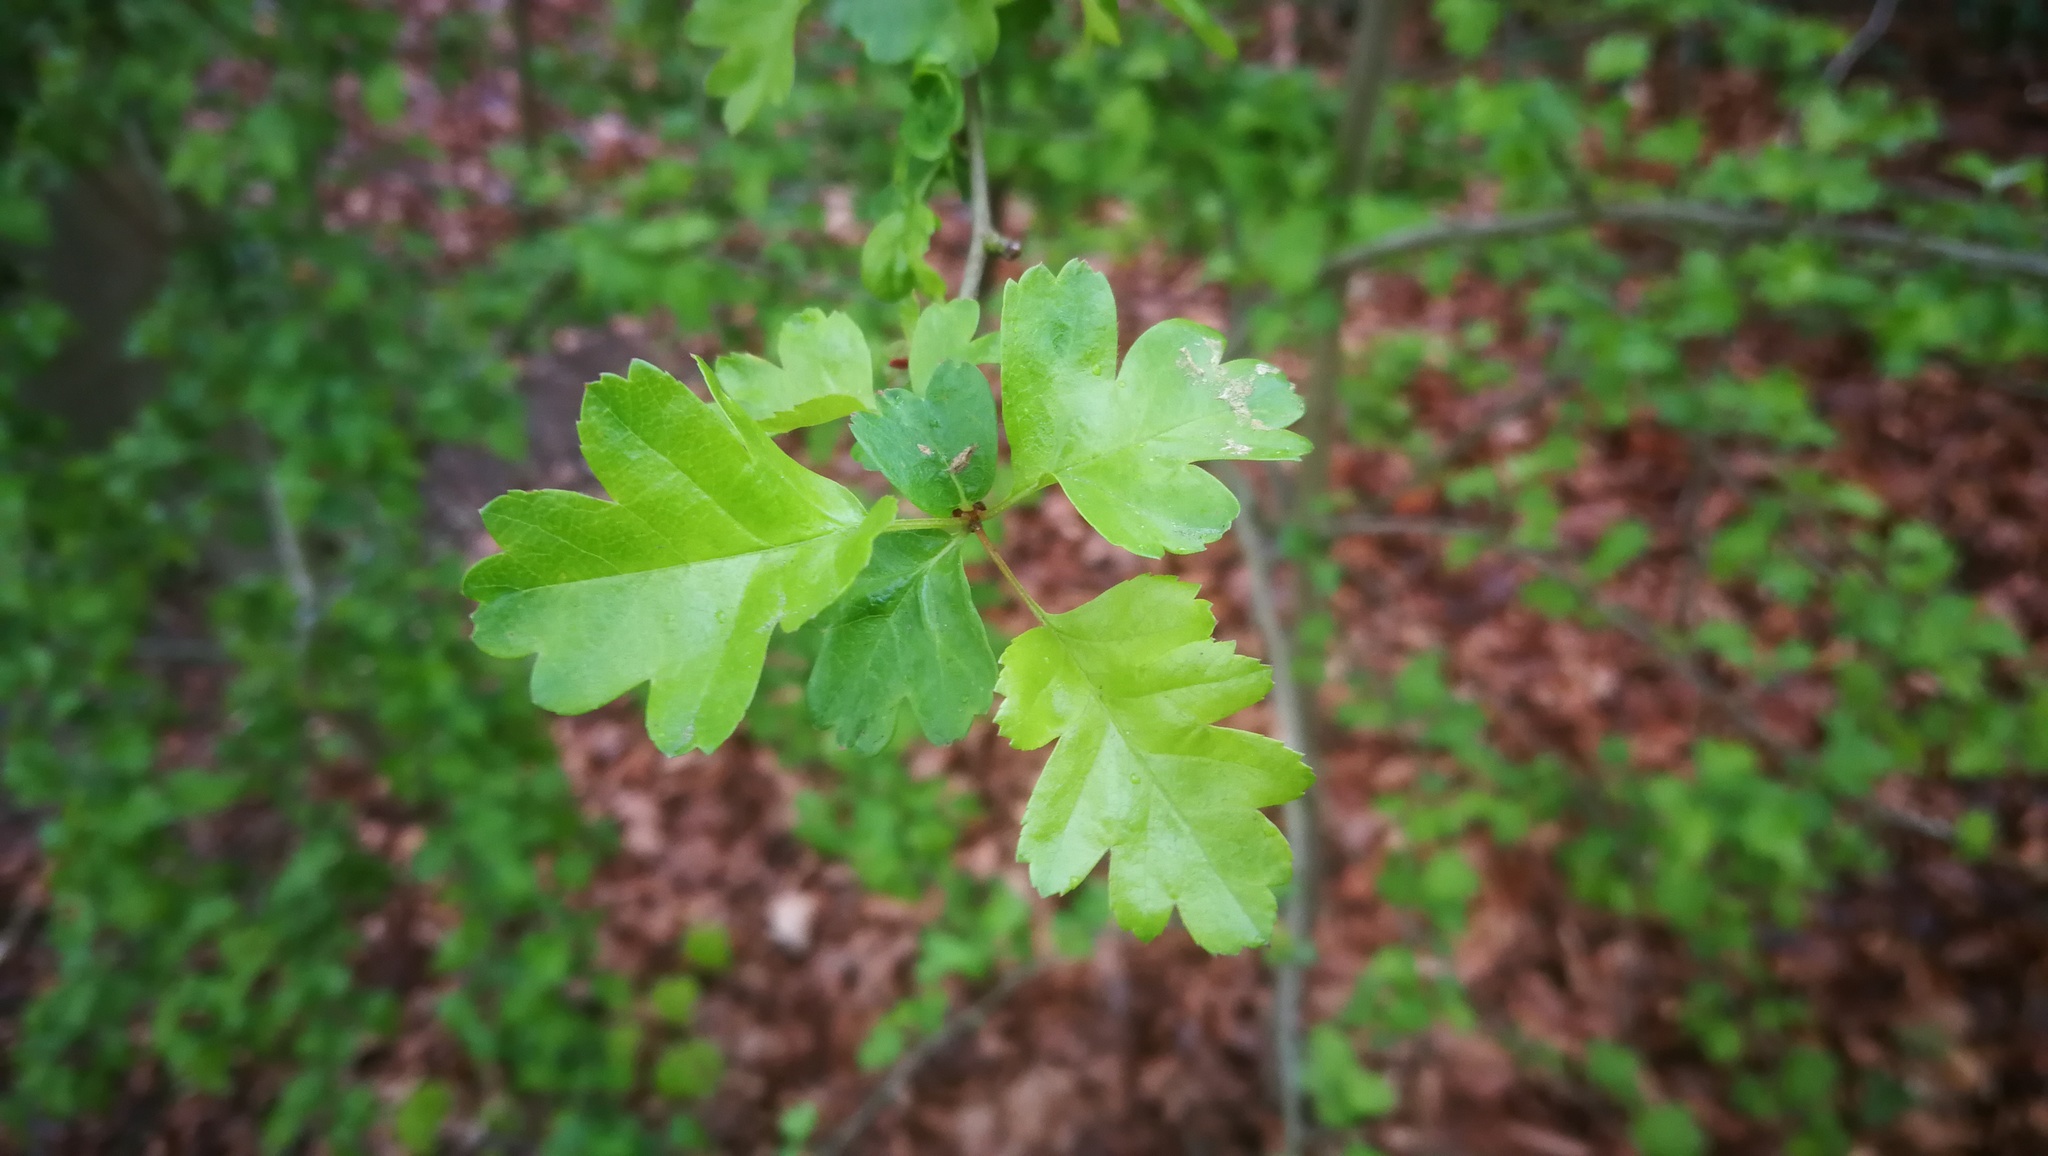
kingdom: Plantae
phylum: Tracheophyta
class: Magnoliopsida
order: Rosales
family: Rosaceae
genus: Crataegus
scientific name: Crataegus monogyna
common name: Hawthorn
